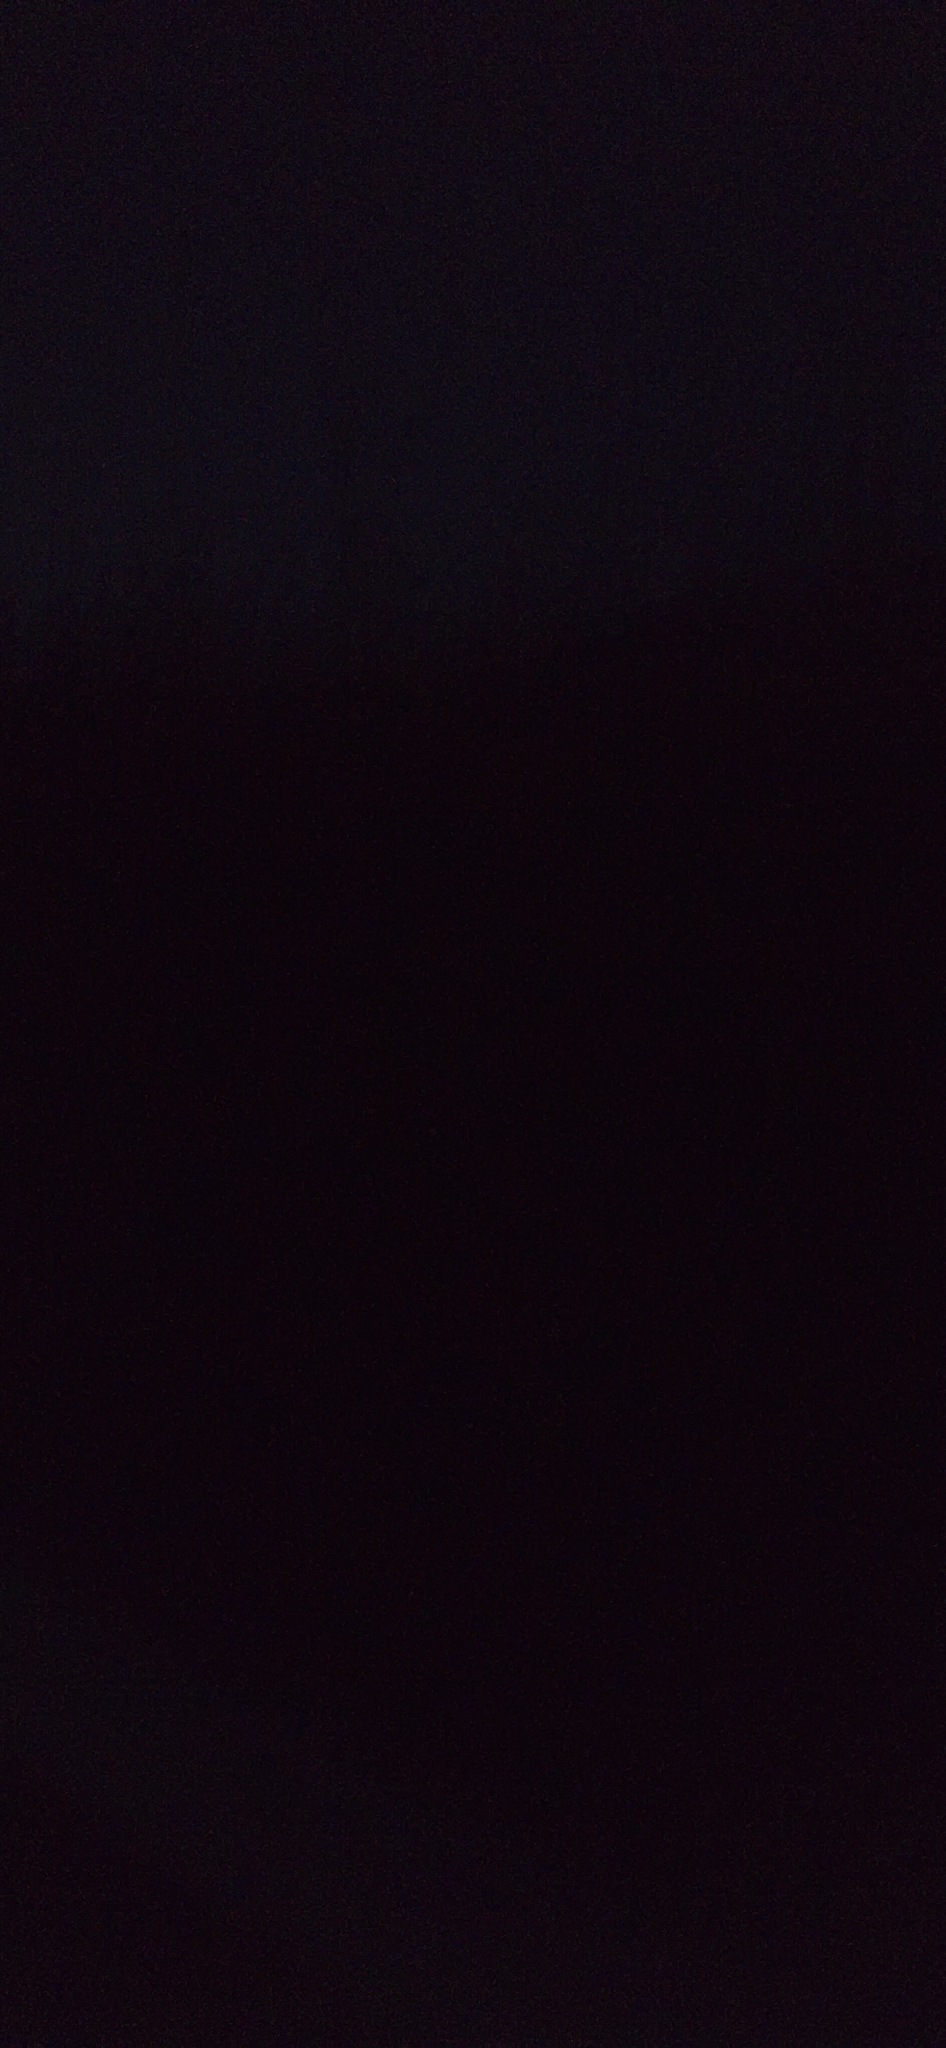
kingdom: Animalia
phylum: Chordata
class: Amphibia
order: Anura
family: Hylidae
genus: Dryophytes
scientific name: Dryophytes cinereus
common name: Green treefrog
